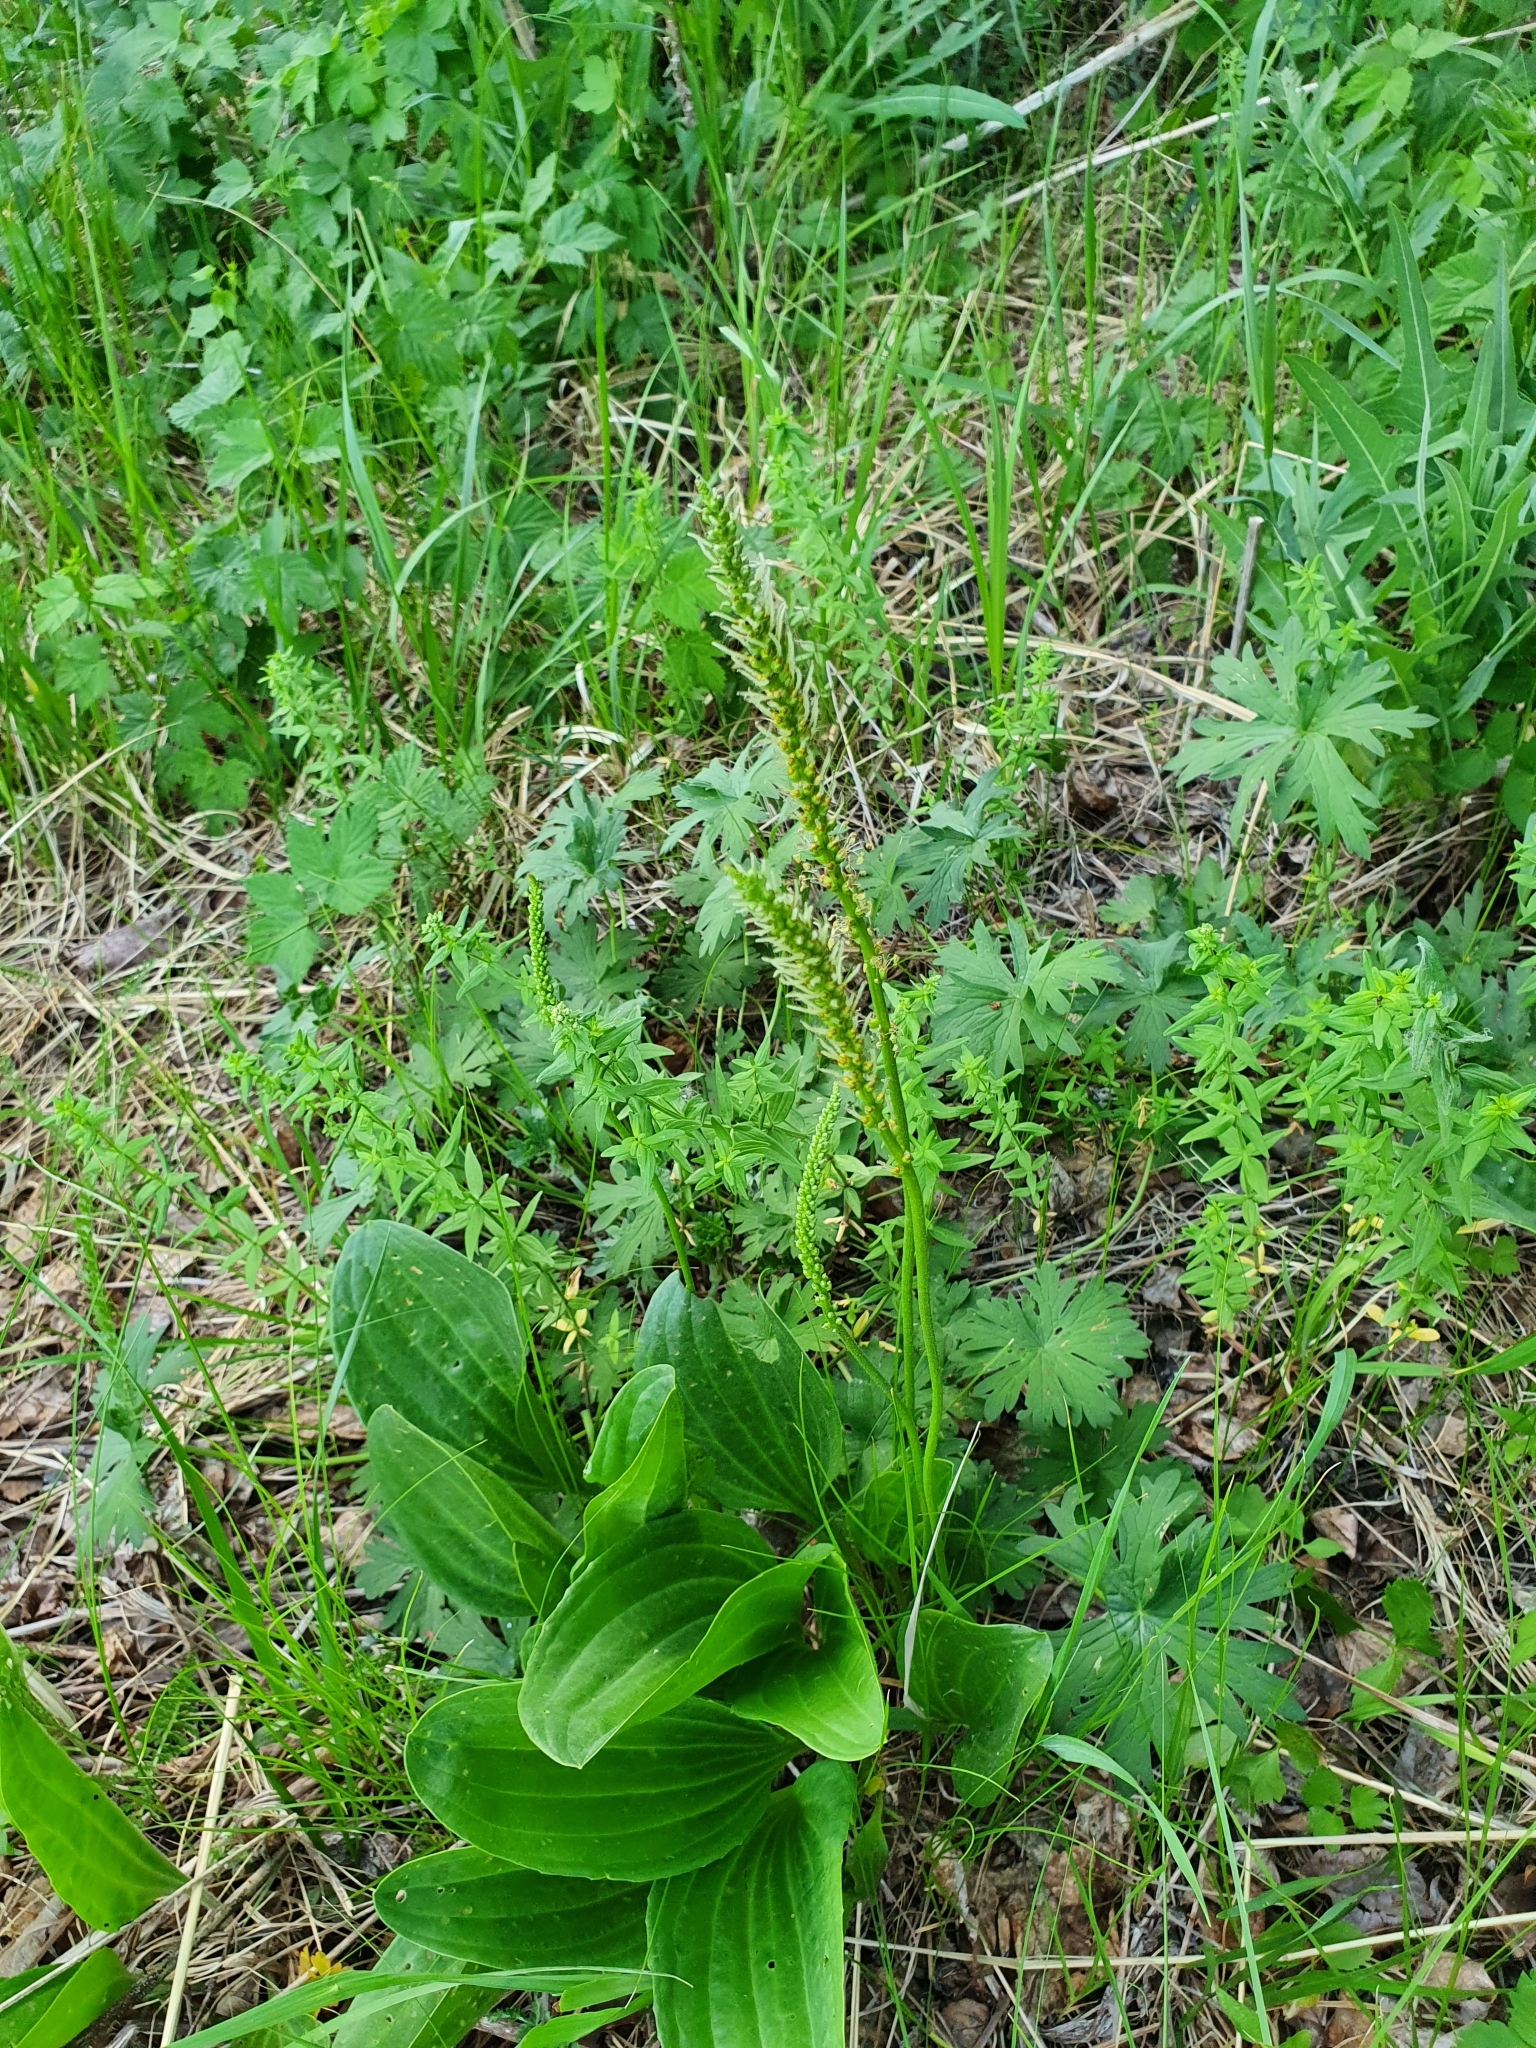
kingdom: Plantae
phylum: Tracheophyta
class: Magnoliopsida
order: Lamiales
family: Plantaginaceae
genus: Plantago
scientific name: Plantago cornuti
